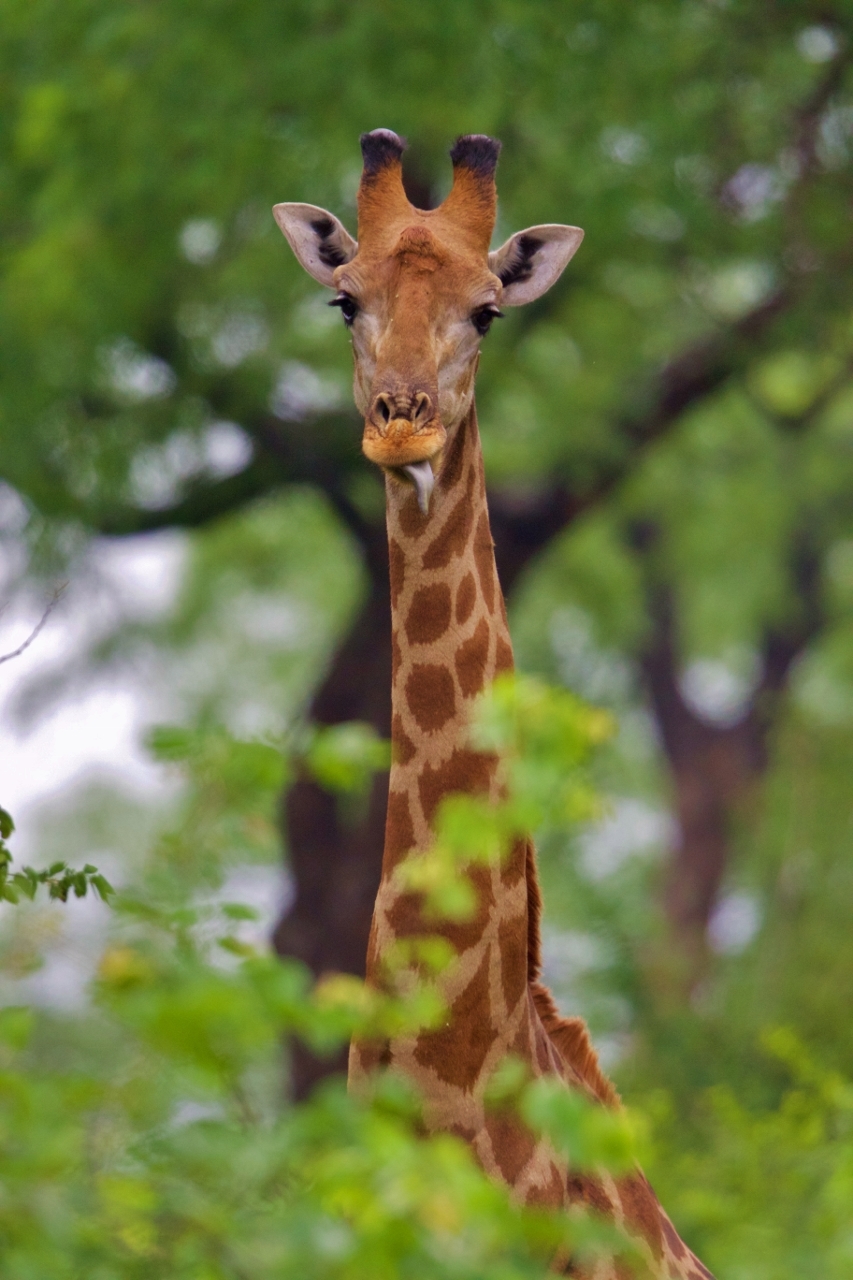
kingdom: Animalia
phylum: Chordata
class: Mammalia
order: Artiodactyla
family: Giraffidae
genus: Giraffa
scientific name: Giraffa giraffa
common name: Southern giraffe
